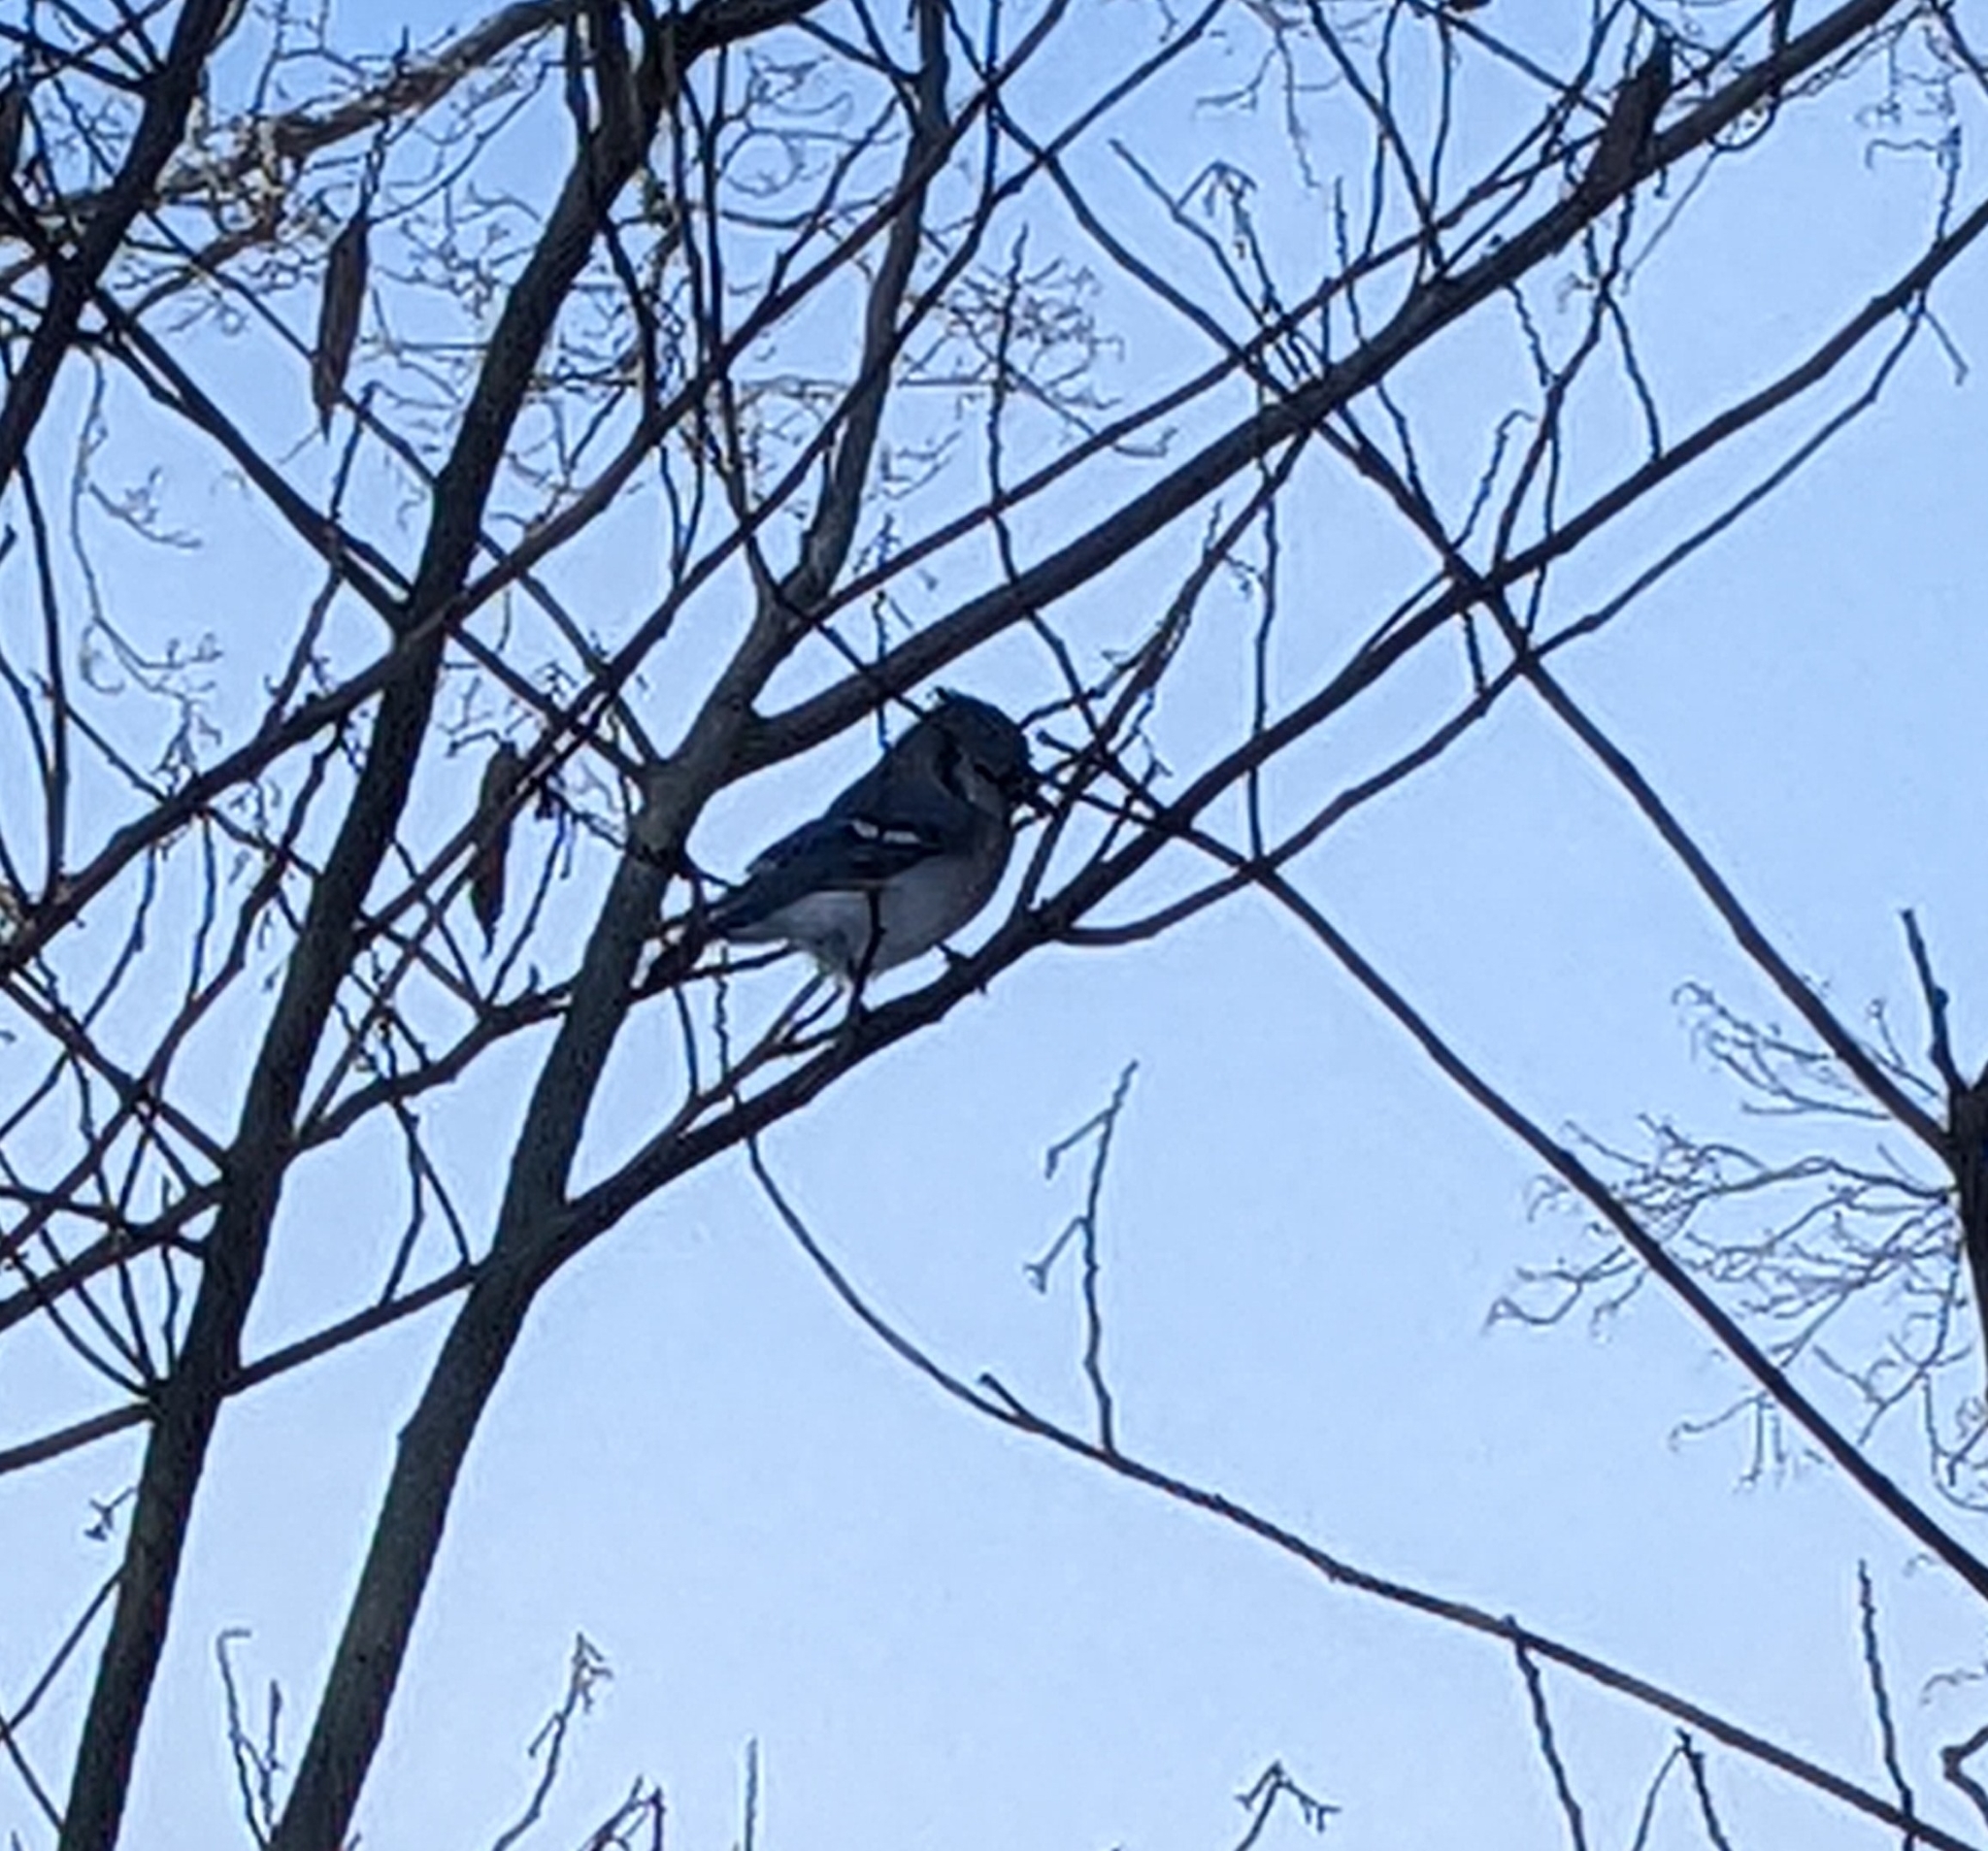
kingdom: Animalia
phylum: Chordata
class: Aves
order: Passeriformes
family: Corvidae
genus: Cyanocitta
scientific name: Cyanocitta cristata
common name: Blue jay
